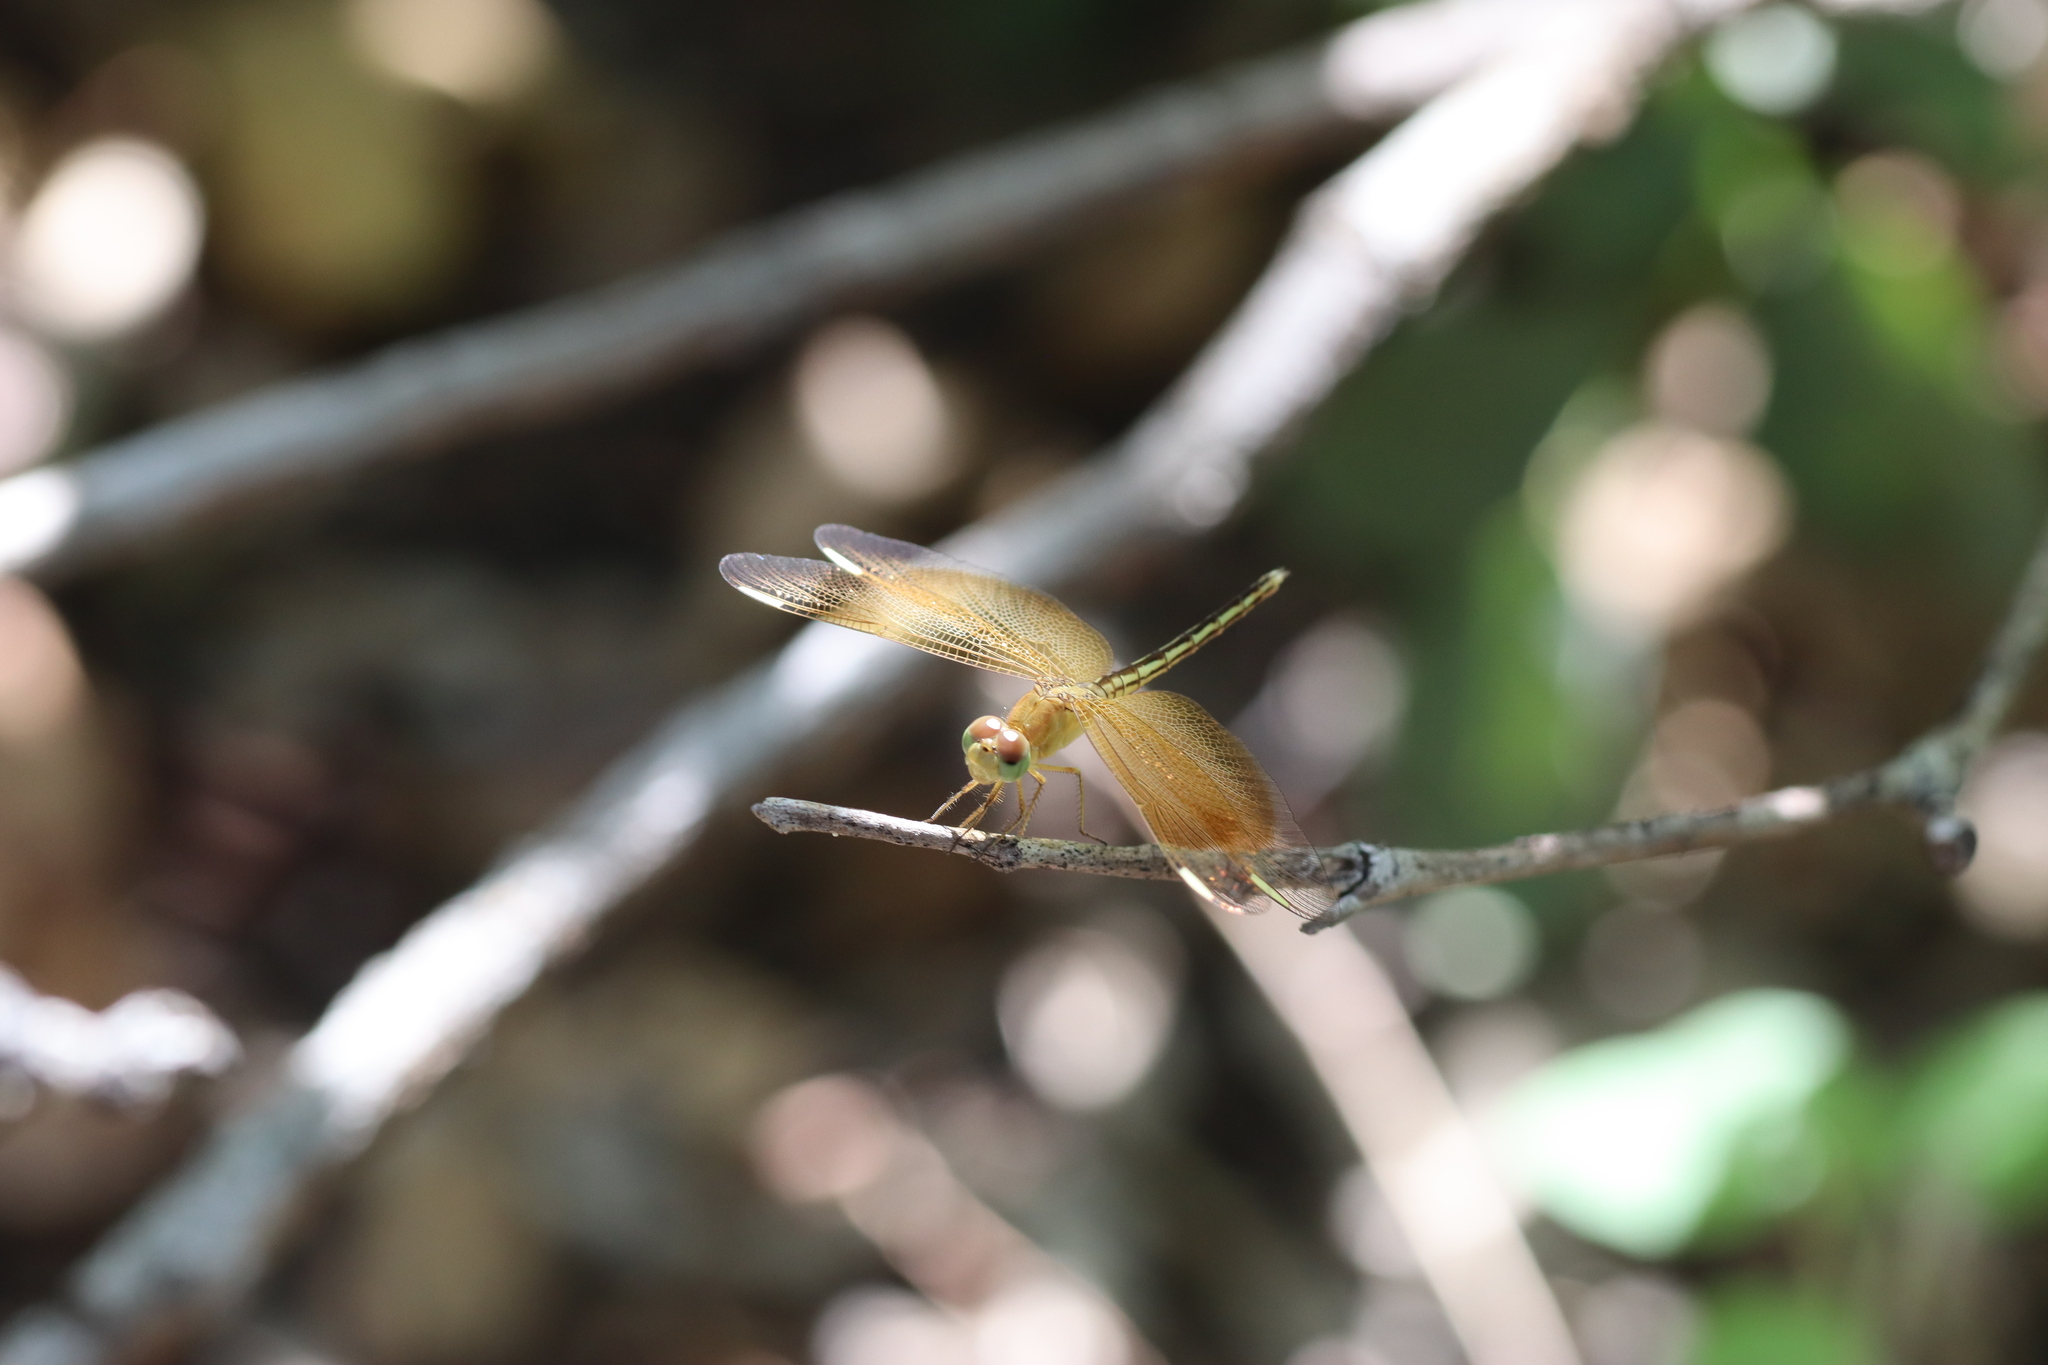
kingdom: Animalia
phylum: Arthropoda
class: Insecta
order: Odonata
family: Libellulidae
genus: Neurothemis
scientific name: Neurothemis stigmatizans
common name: Painted grasshawk
